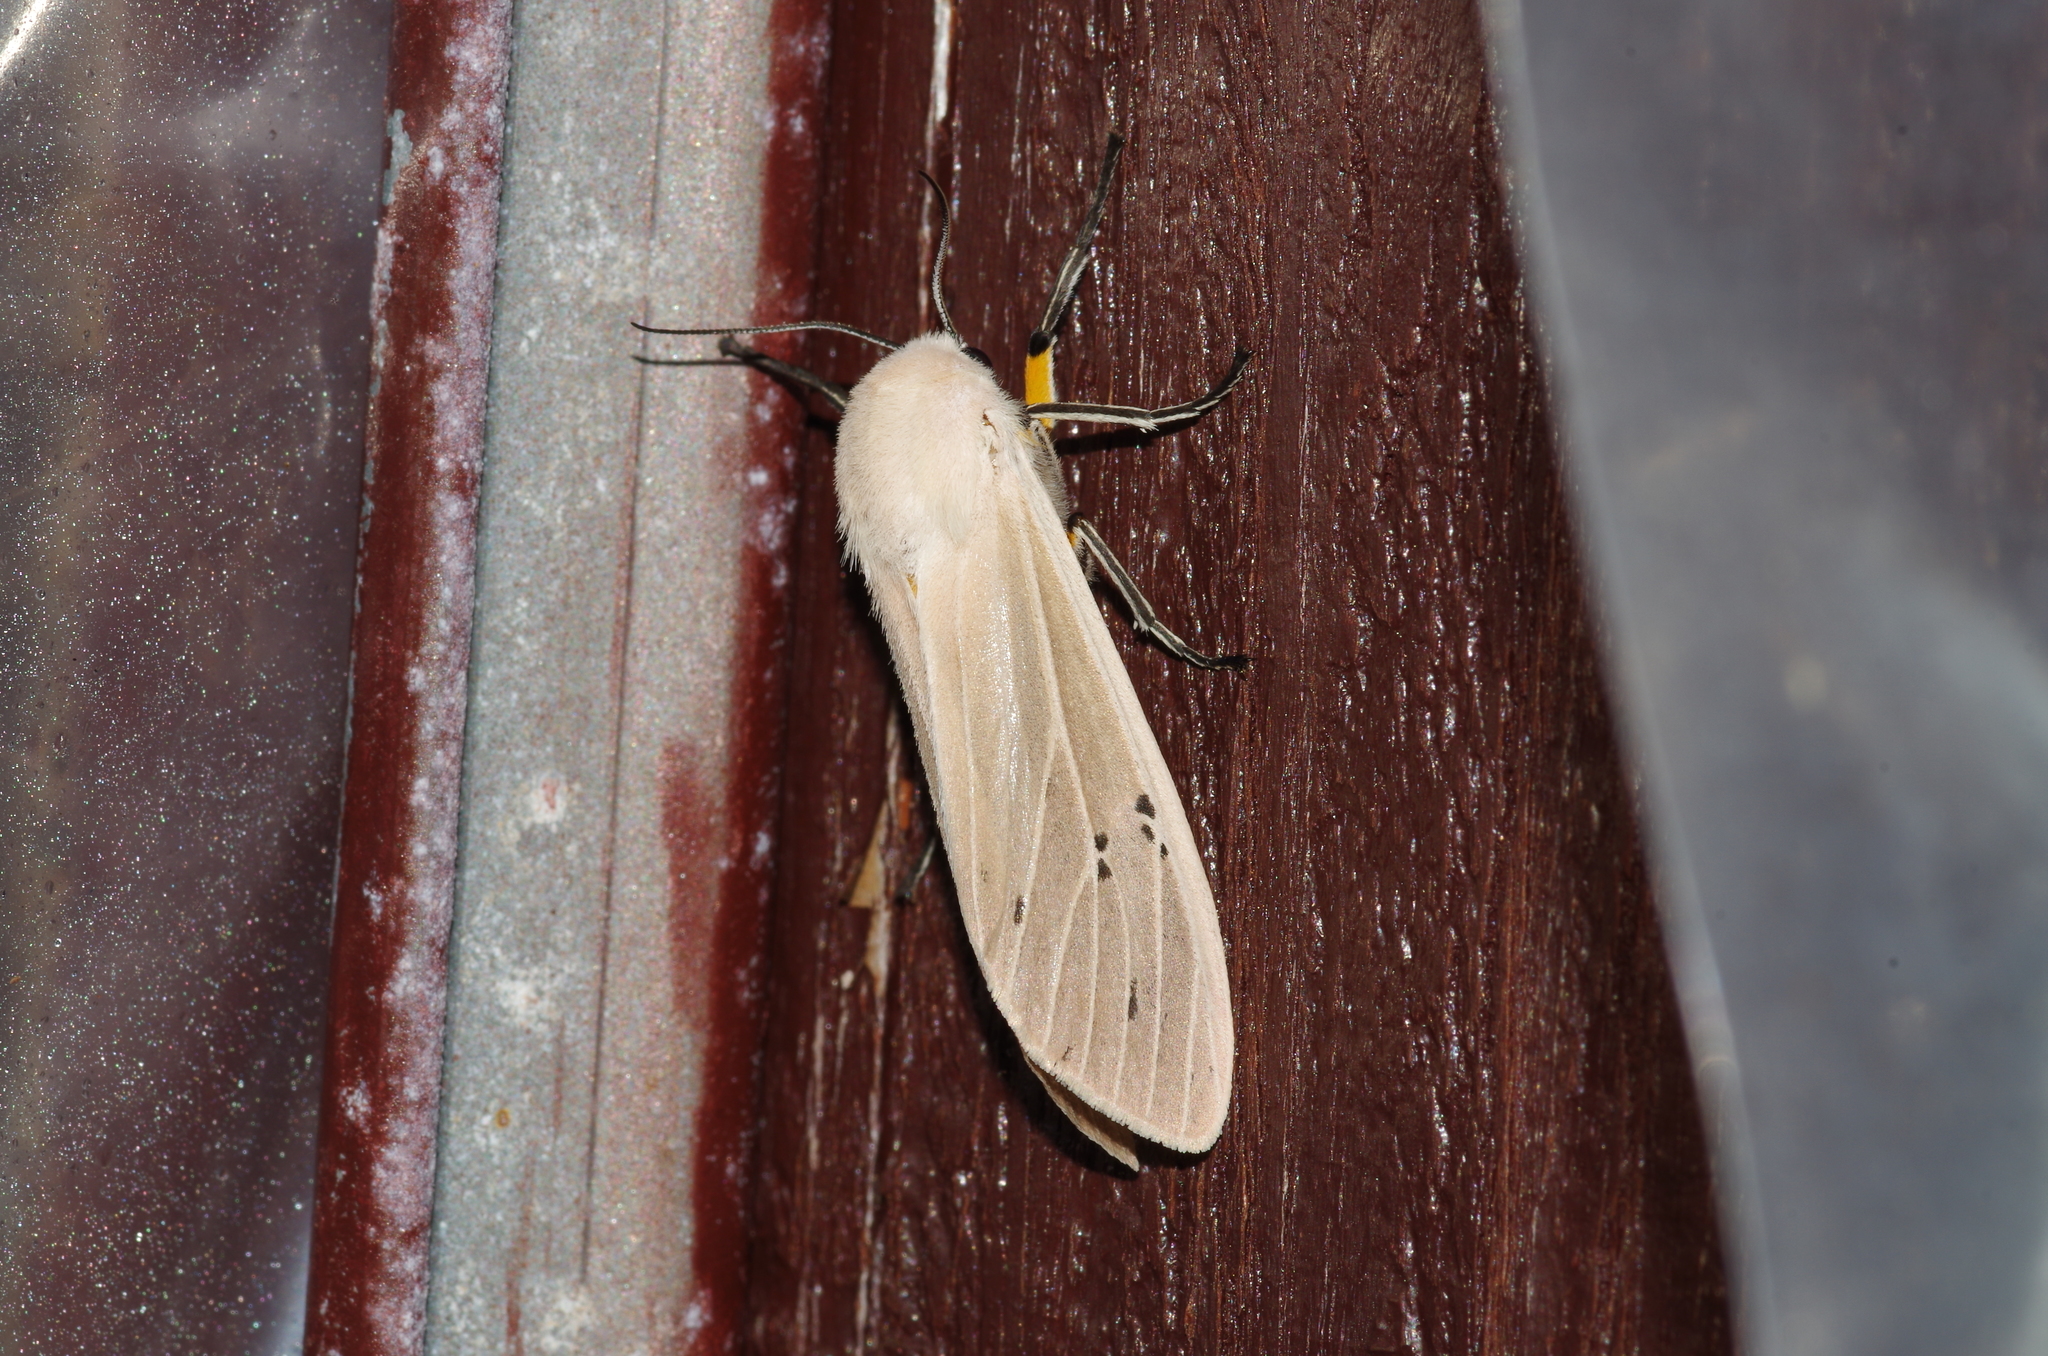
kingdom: Animalia
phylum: Arthropoda
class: Insecta
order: Lepidoptera
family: Erebidae
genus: Creatonotos
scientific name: Creatonotos transiens
